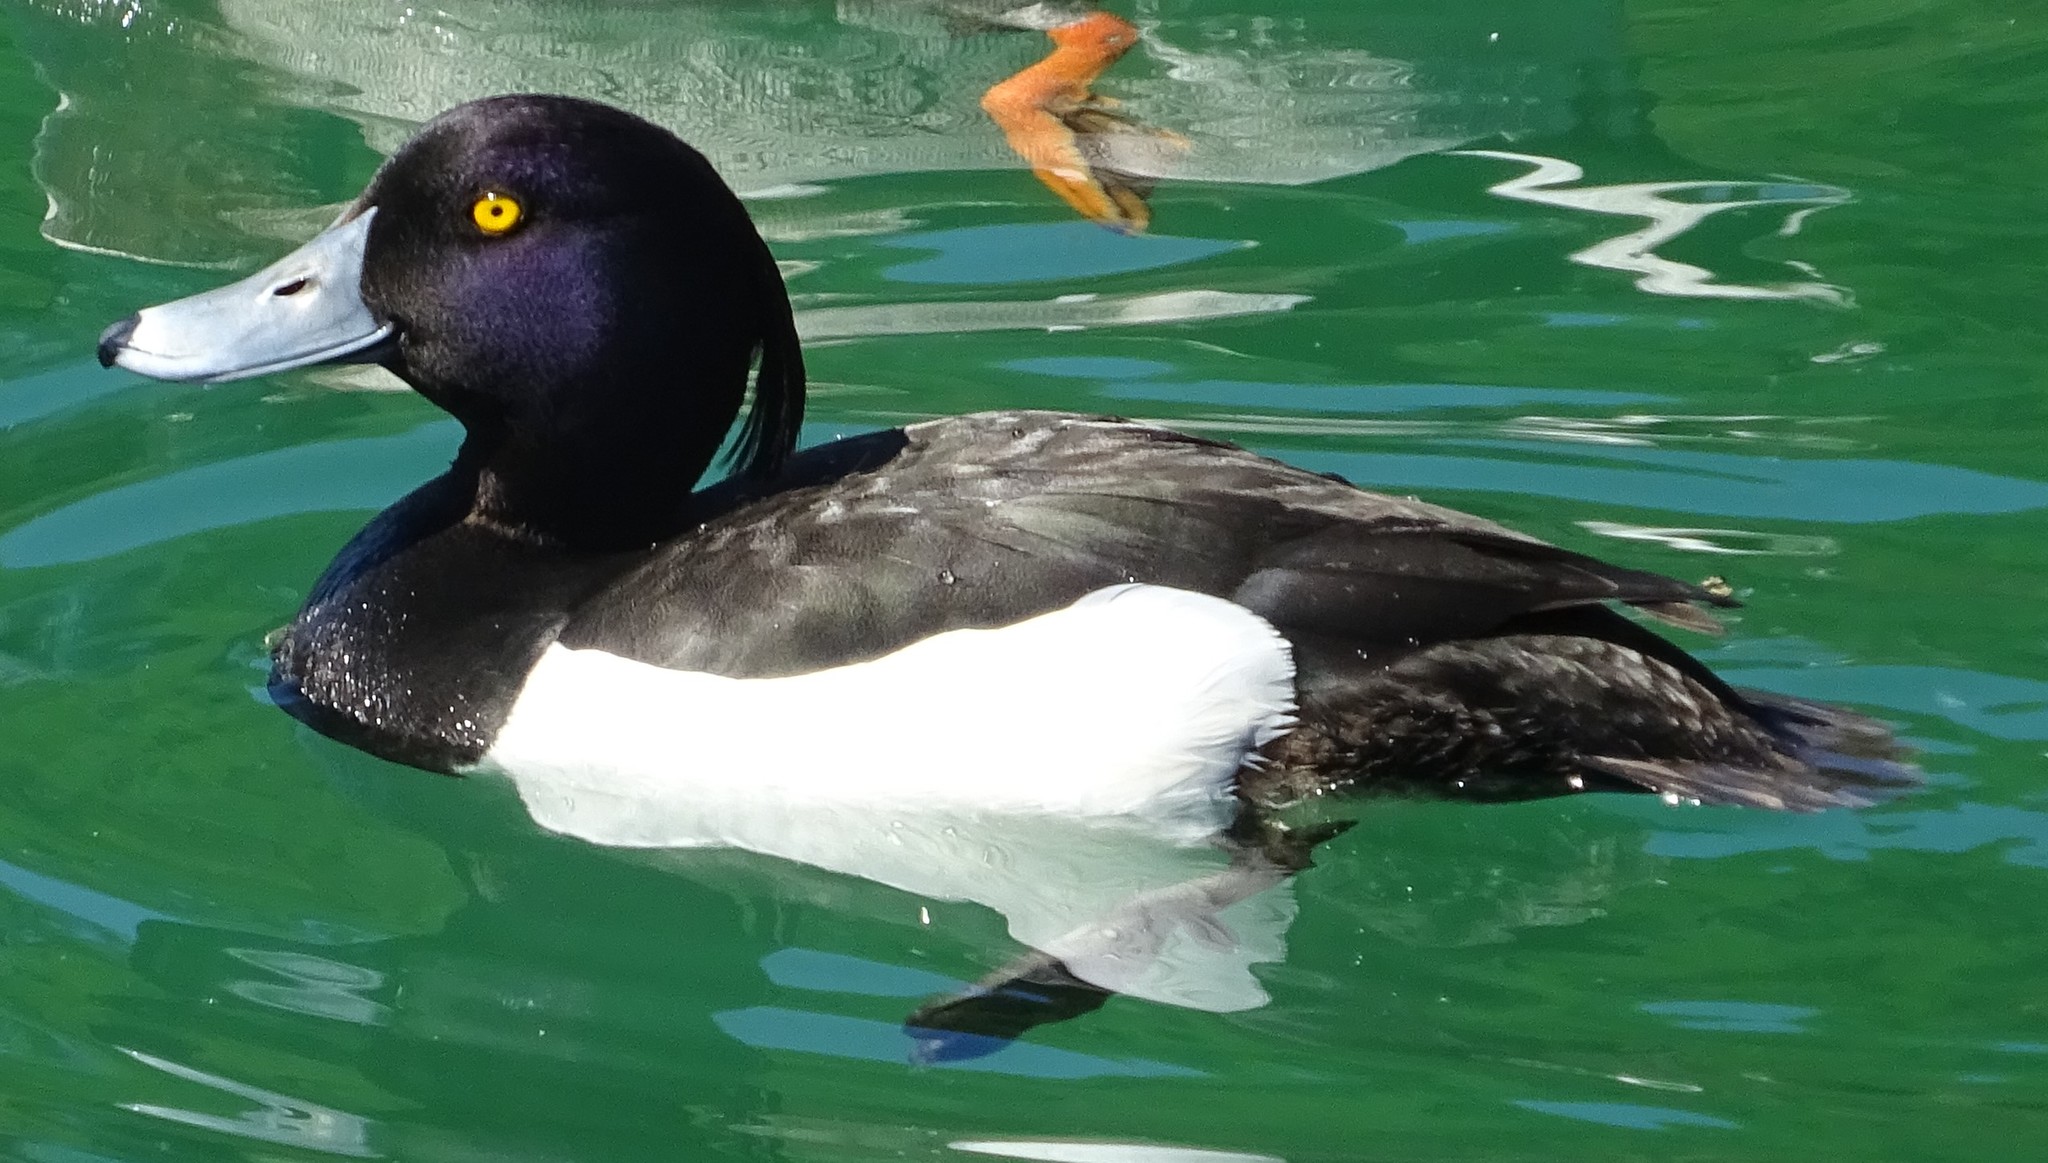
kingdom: Animalia
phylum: Chordata
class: Aves
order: Anseriformes
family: Anatidae
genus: Aythya
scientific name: Aythya fuligula
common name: Tufted duck
